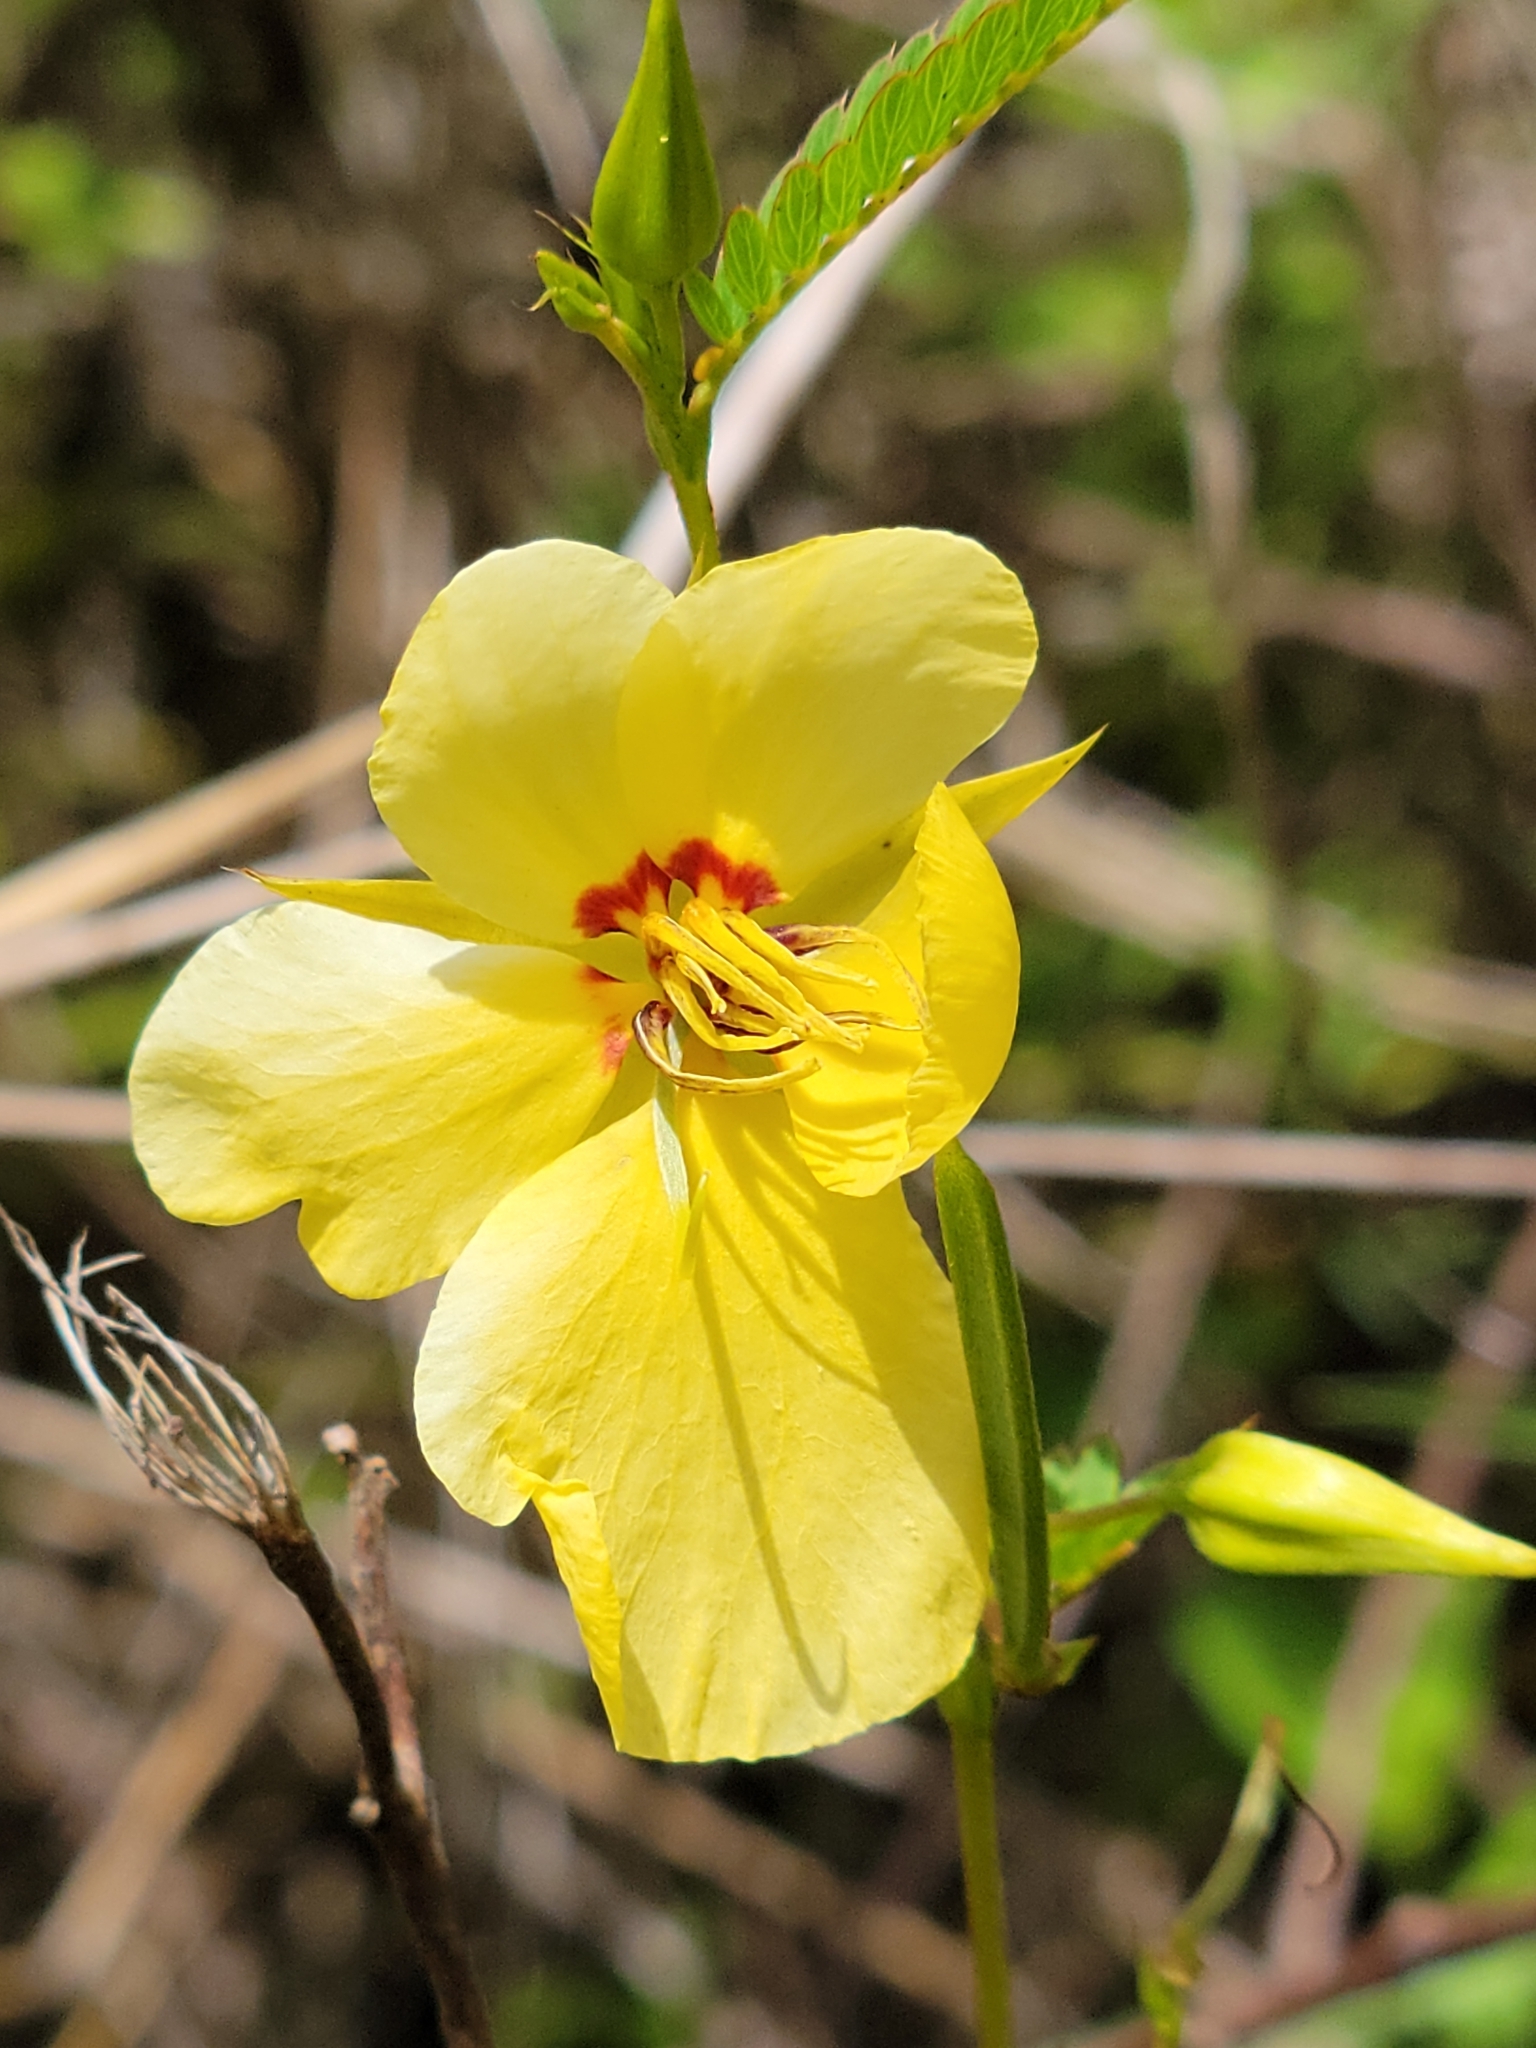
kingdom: Plantae
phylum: Tracheophyta
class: Magnoliopsida
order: Fabales
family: Fabaceae
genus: Chamaecrista
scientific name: Chamaecrista fasciculata
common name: Golden cassia
